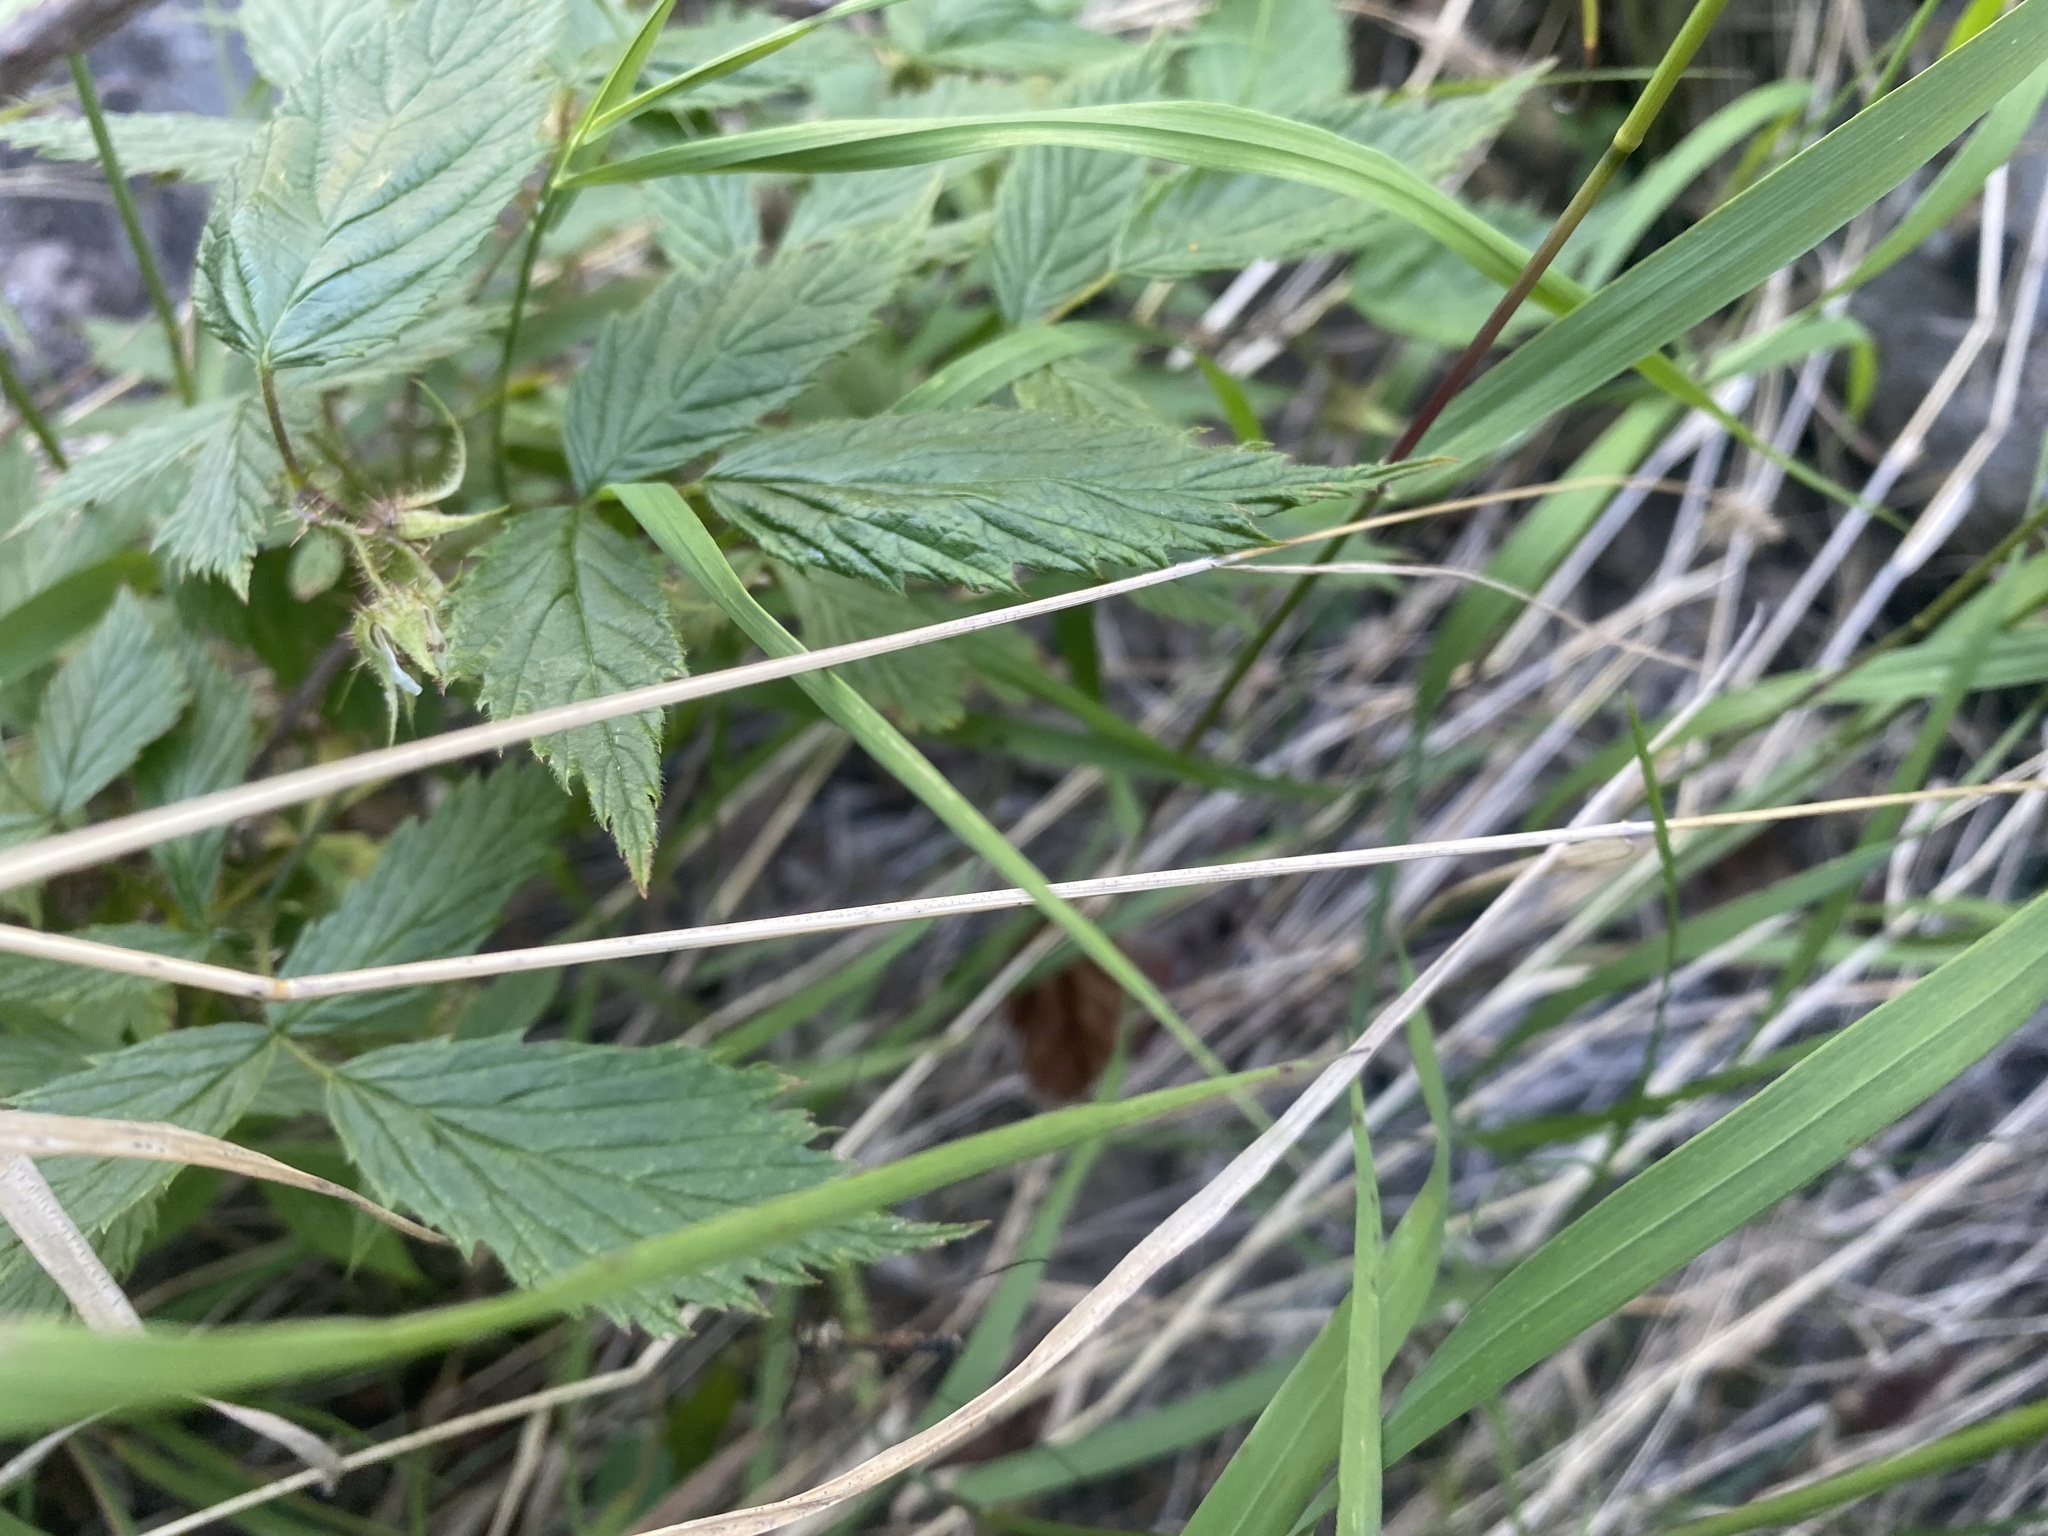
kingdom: Plantae
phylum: Tracheophyta
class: Magnoliopsida
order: Rosales
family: Rosaceae
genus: Rubus
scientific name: Rubus sachalinensis
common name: Red raspberry
